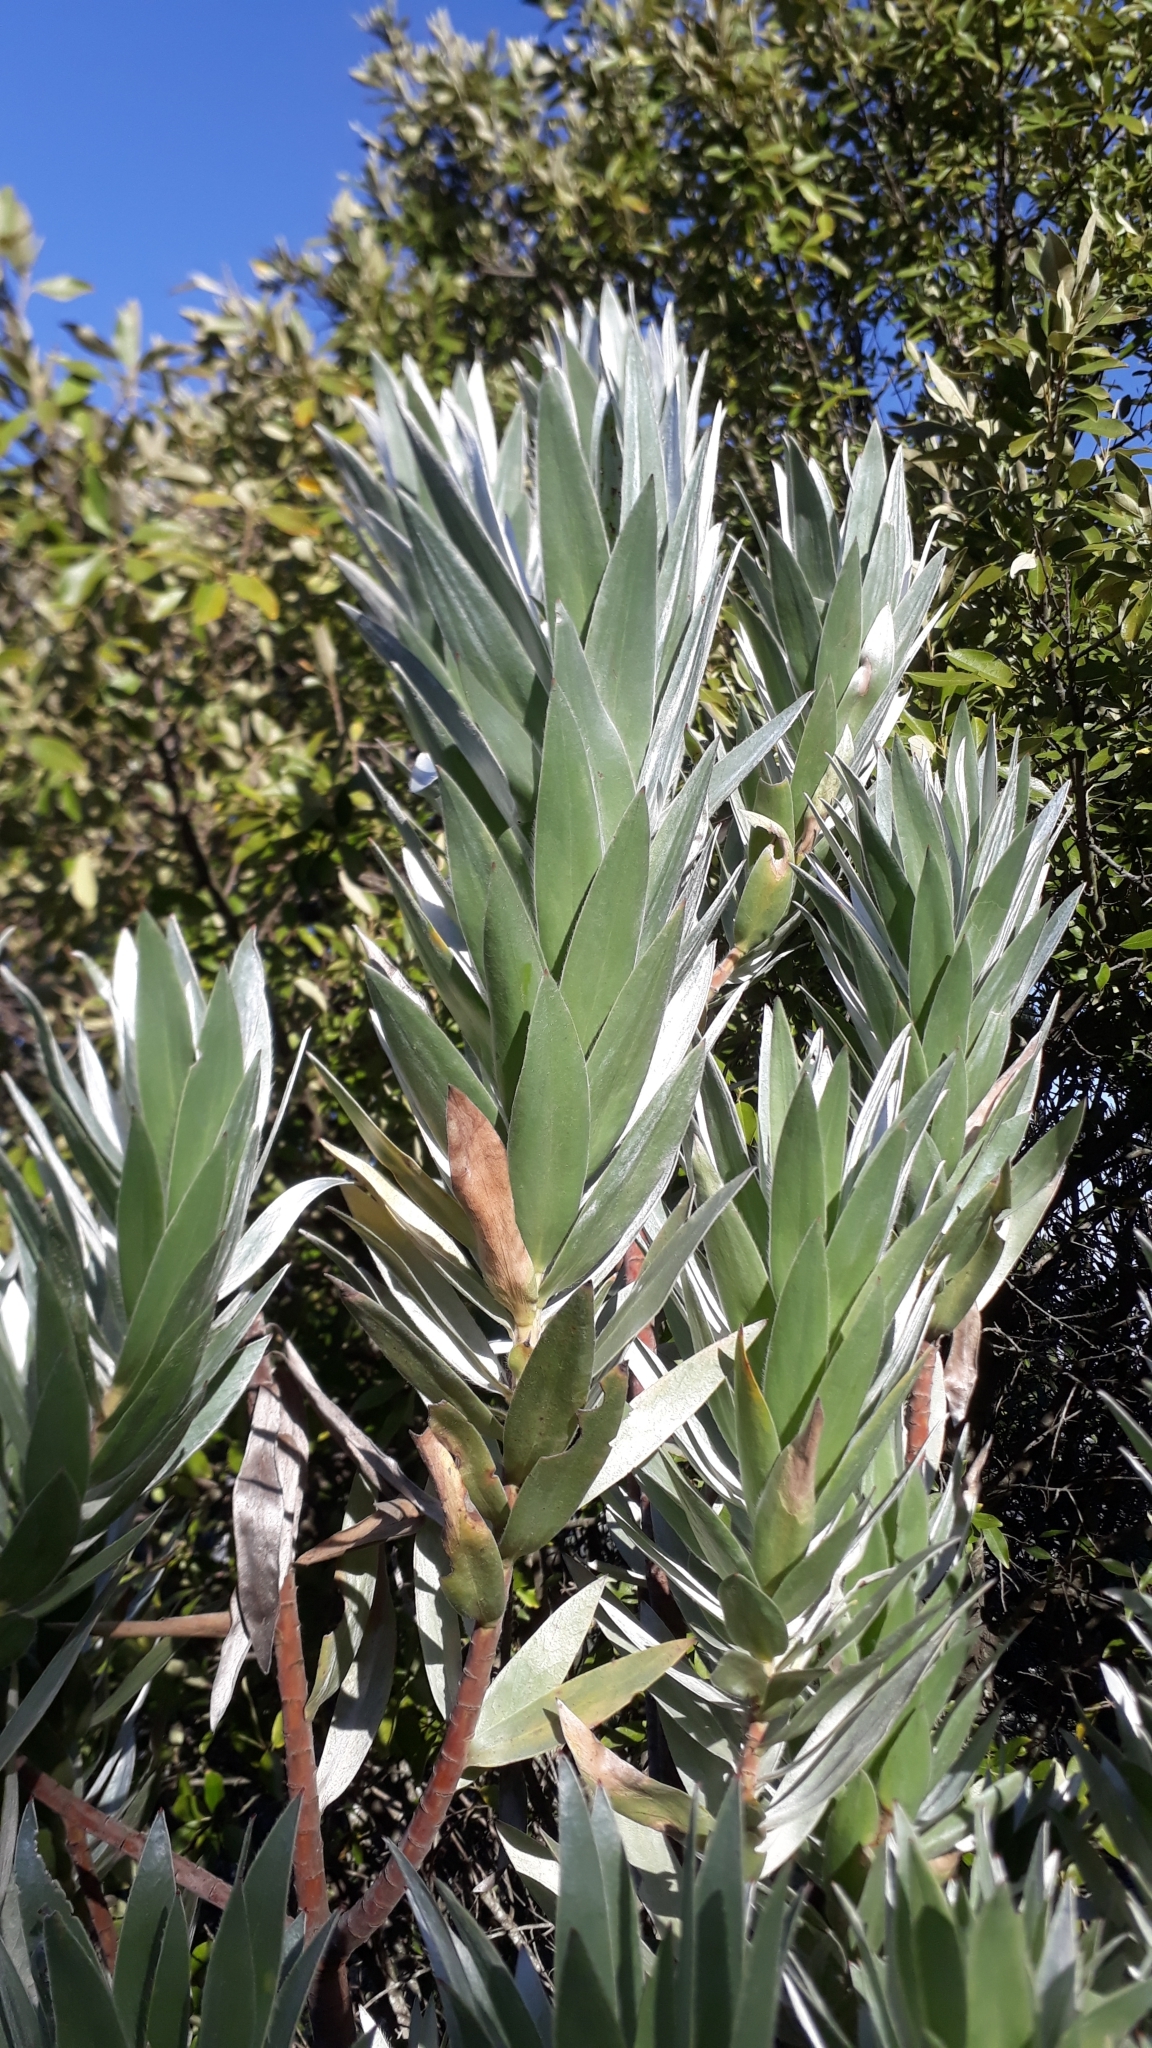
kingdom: Plantae
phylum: Tracheophyta
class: Magnoliopsida
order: Proteales
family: Proteaceae
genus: Leucadendron
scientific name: Leucadendron argenteum
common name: Cape silver tree
